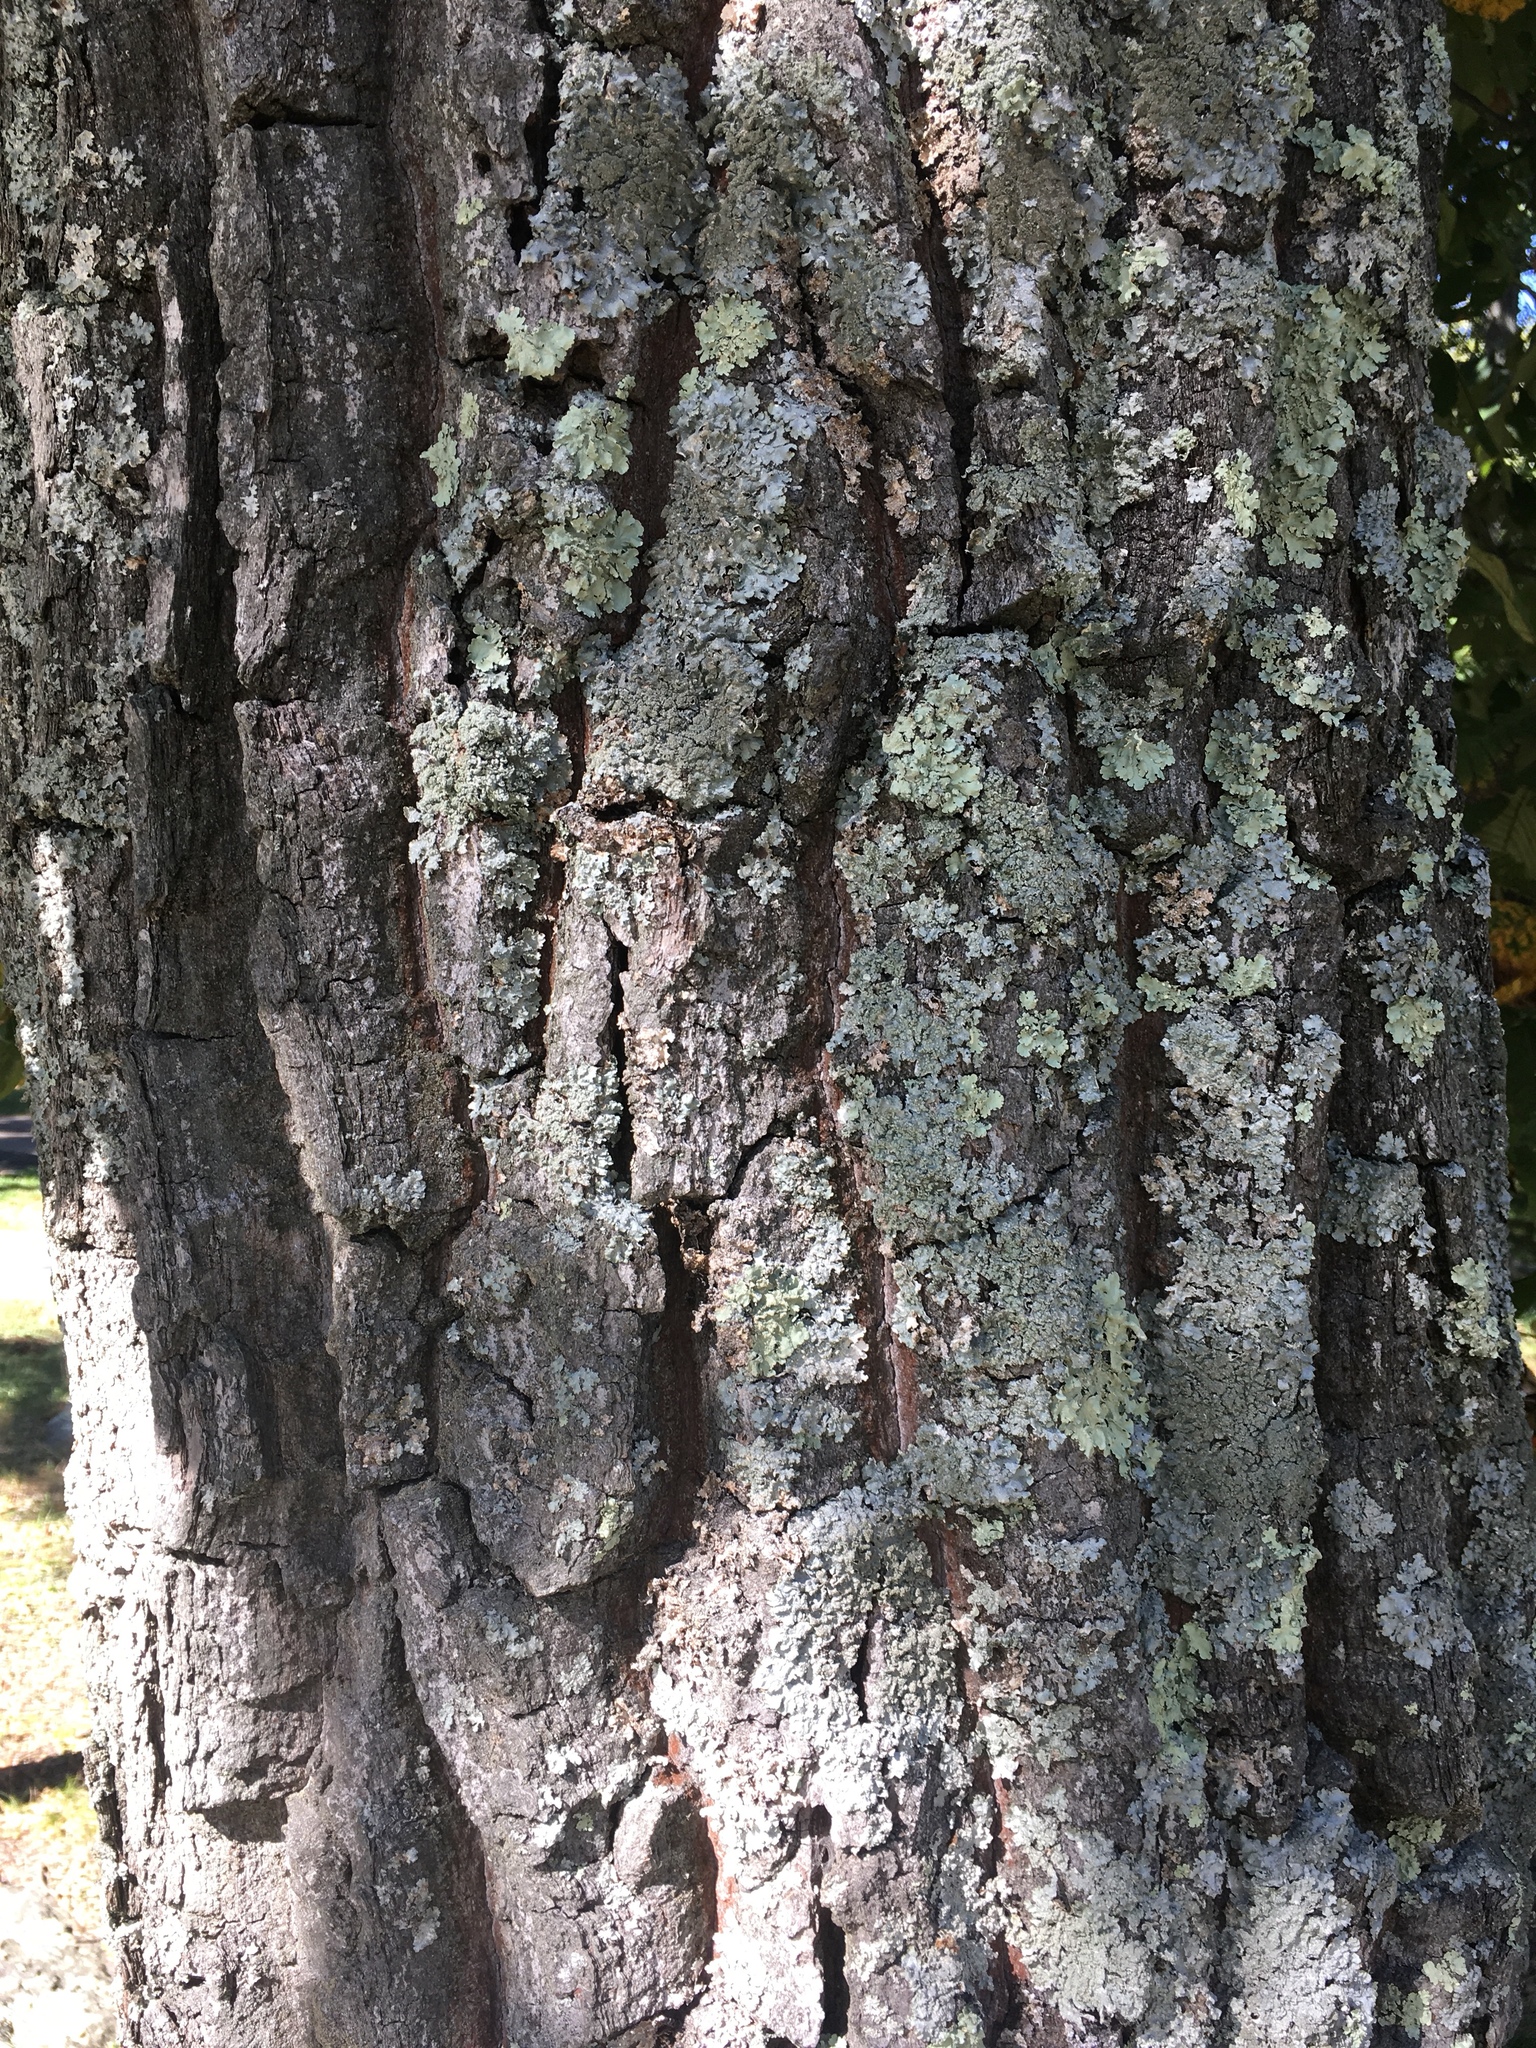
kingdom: Plantae
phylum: Tracheophyta
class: Magnoliopsida
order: Fagales
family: Fagaceae
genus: Quercus
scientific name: Quercus montana
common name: Chestnut oak
